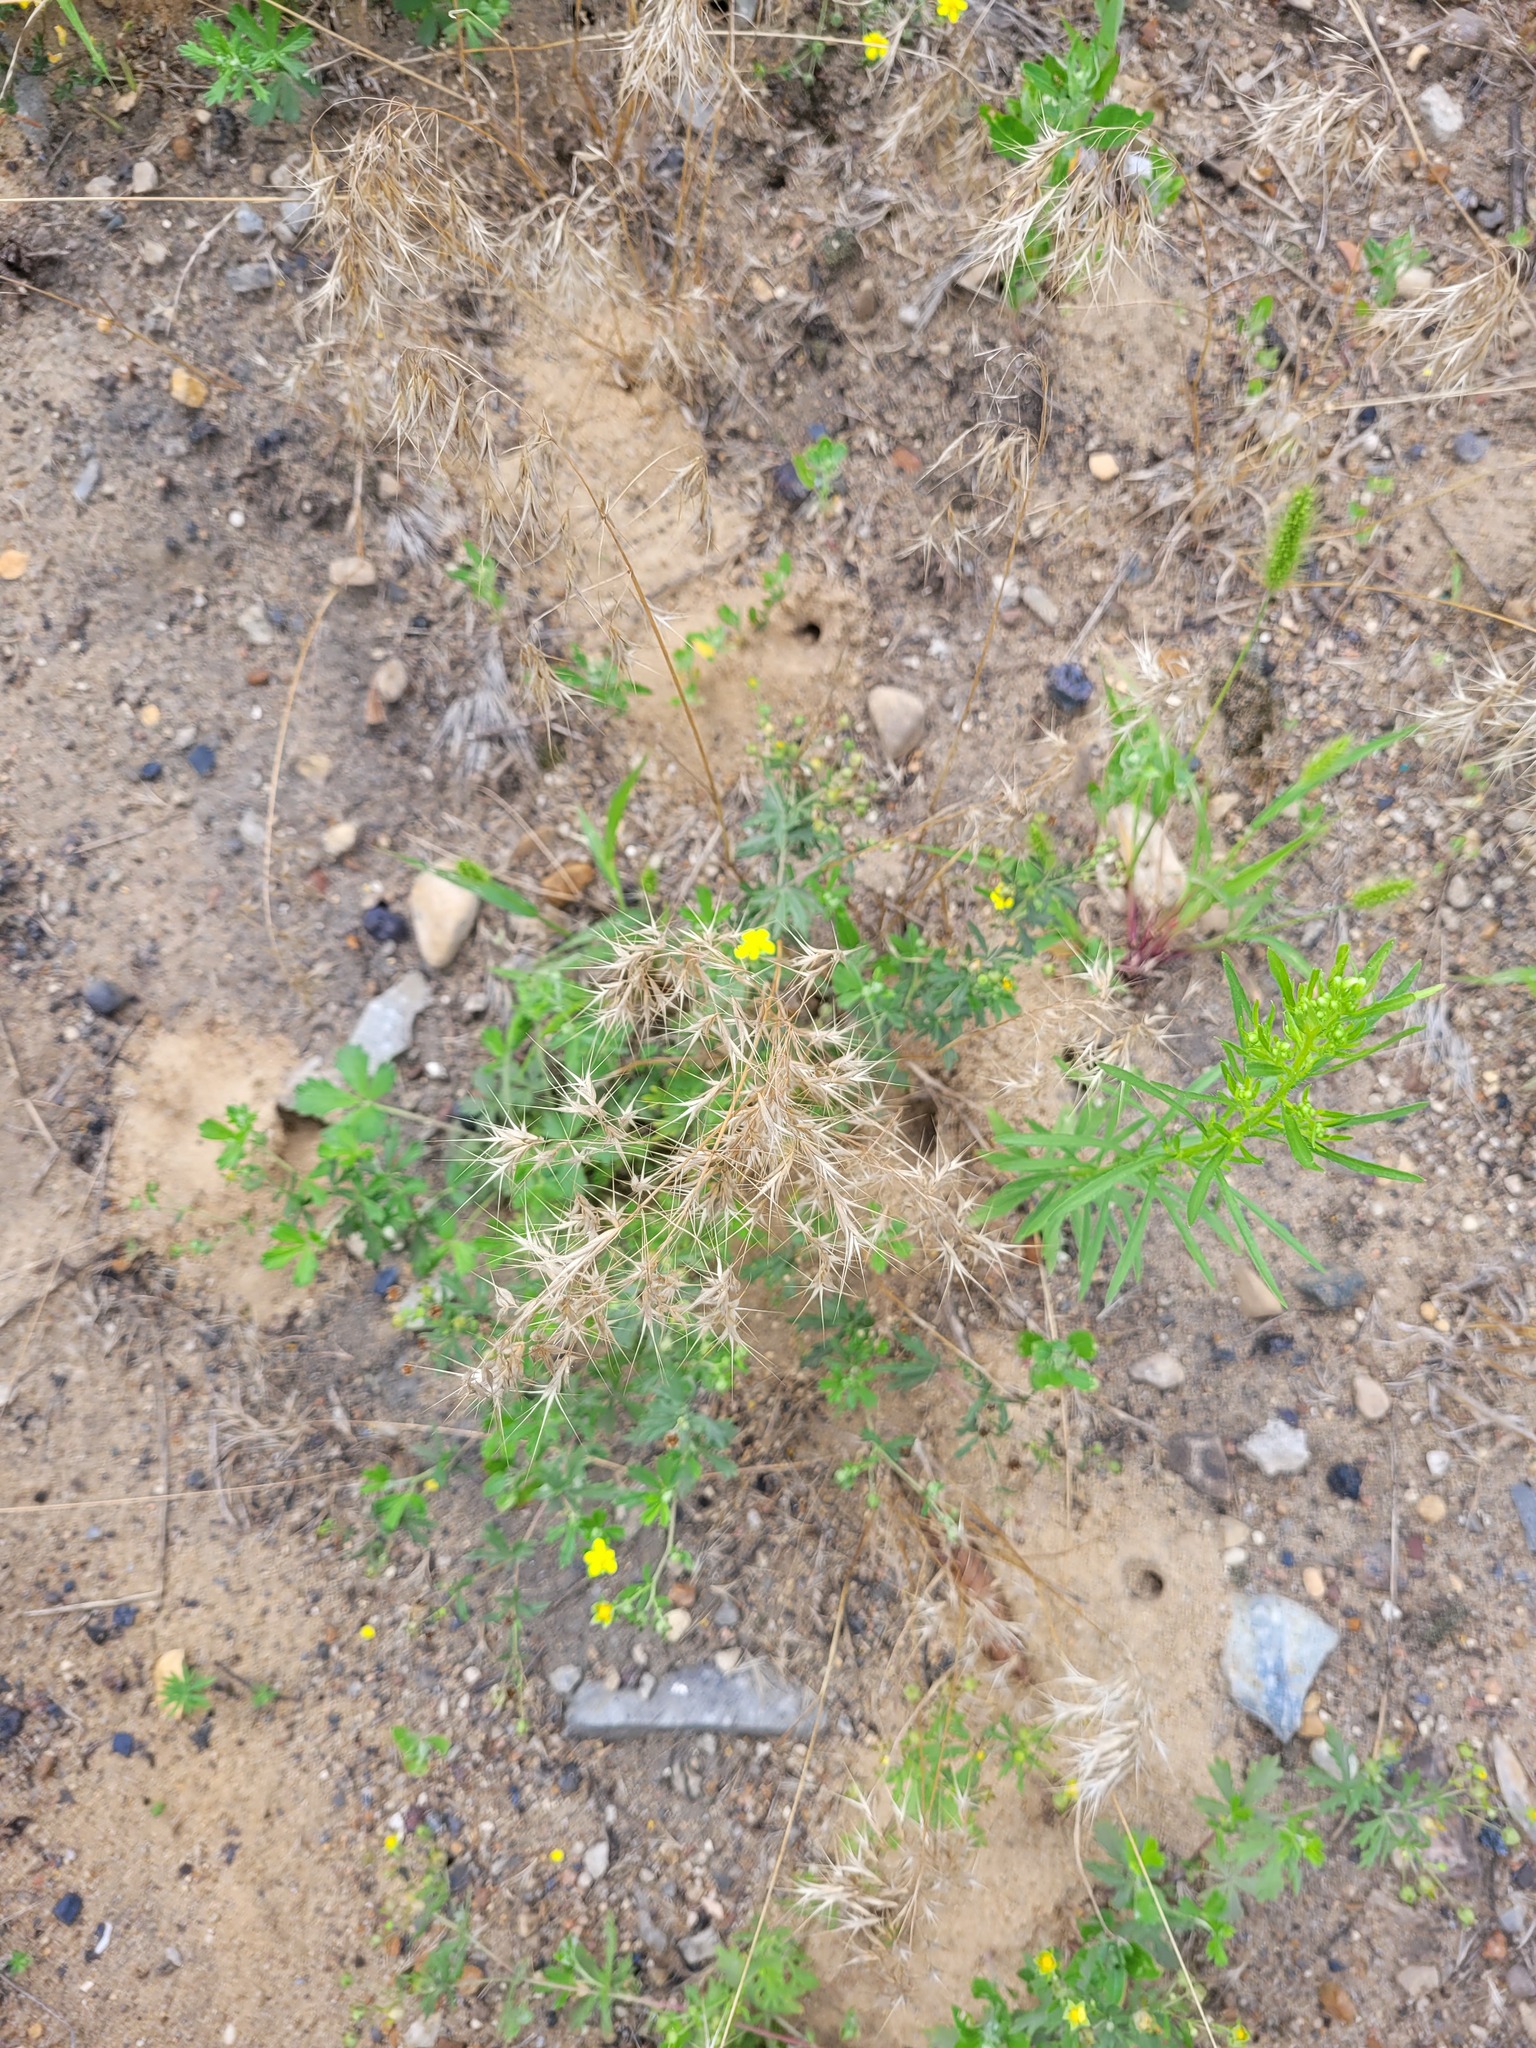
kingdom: Plantae
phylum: Tracheophyta
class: Liliopsida
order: Poales
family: Poaceae
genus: Bromus
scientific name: Bromus tectorum
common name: Cheatgrass
